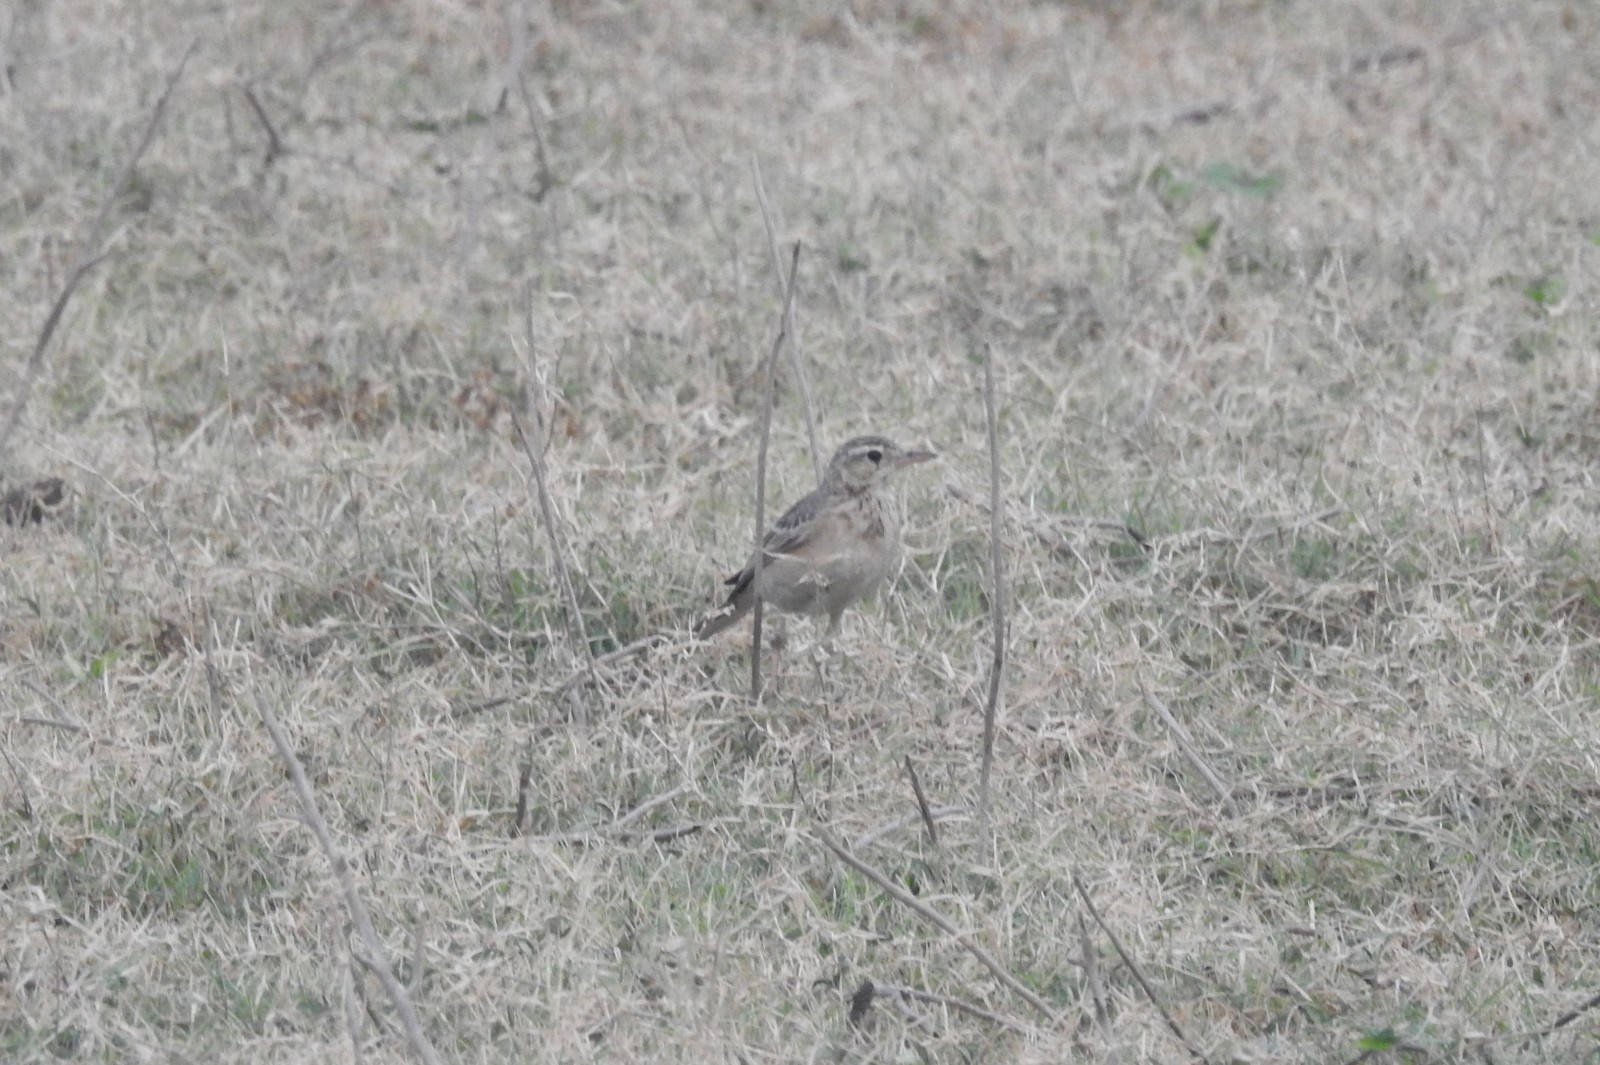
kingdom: Animalia
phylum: Chordata
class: Aves
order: Passeriformes
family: Motacillidae
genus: Anthus
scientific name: Anthus rufulus
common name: Paddyfield pipit
